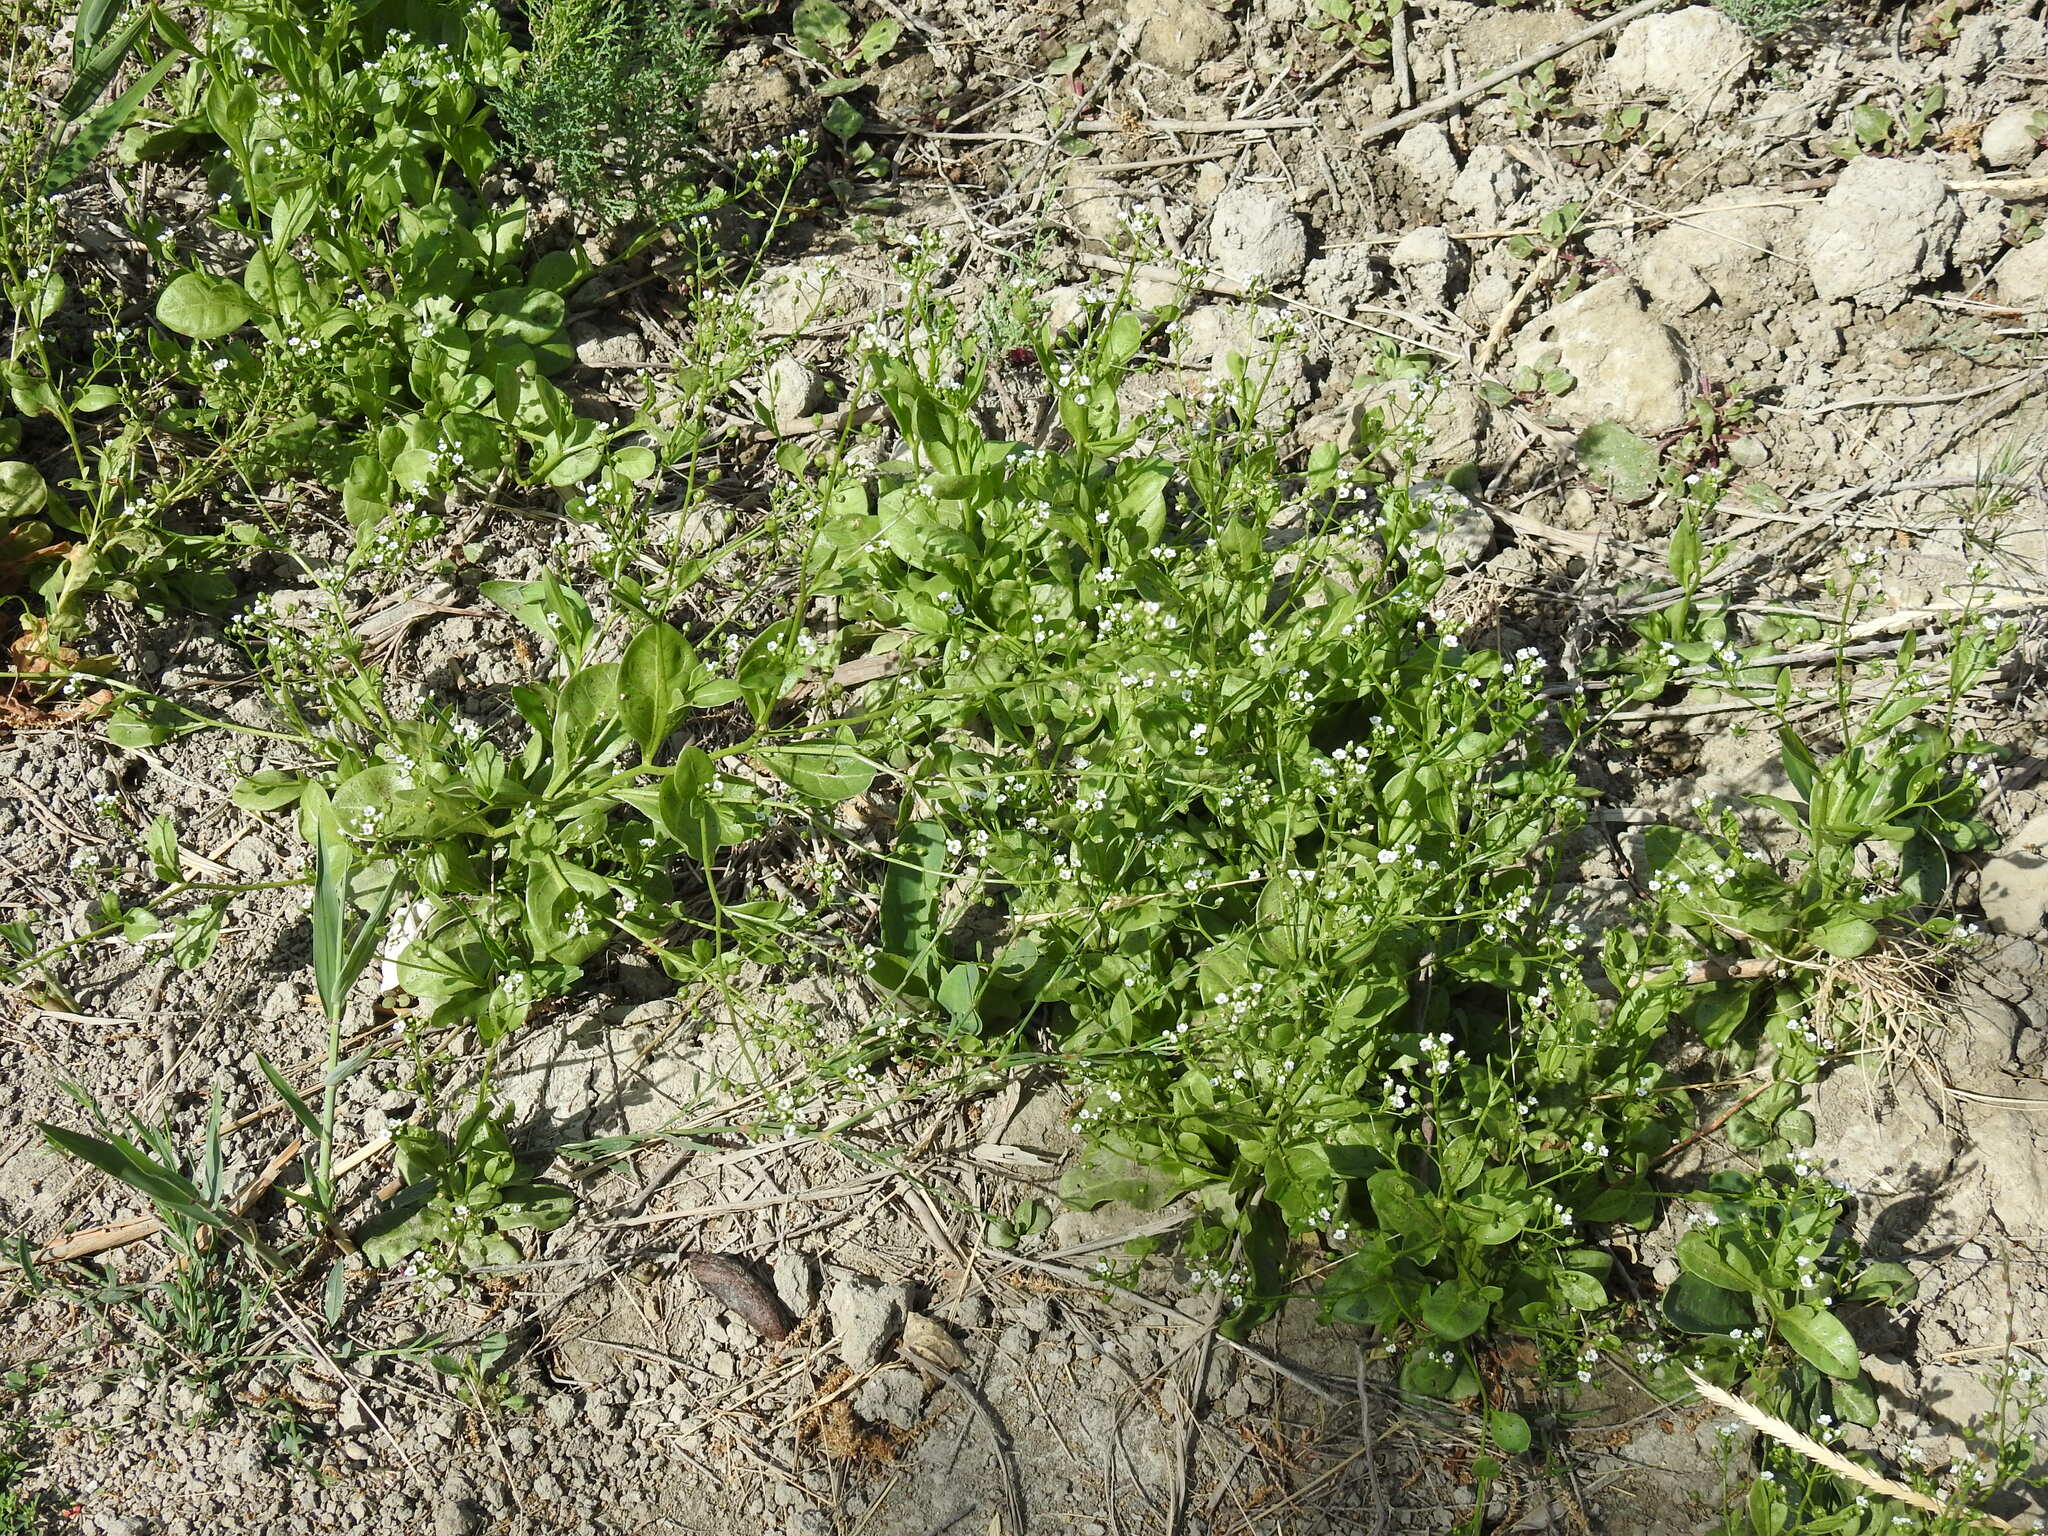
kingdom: Plantae
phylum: Tracheophyta
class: Magnoliopsida
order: Ericales
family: Primulaceae
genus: Samolus
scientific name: Samolus valerandi
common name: Brookweed
